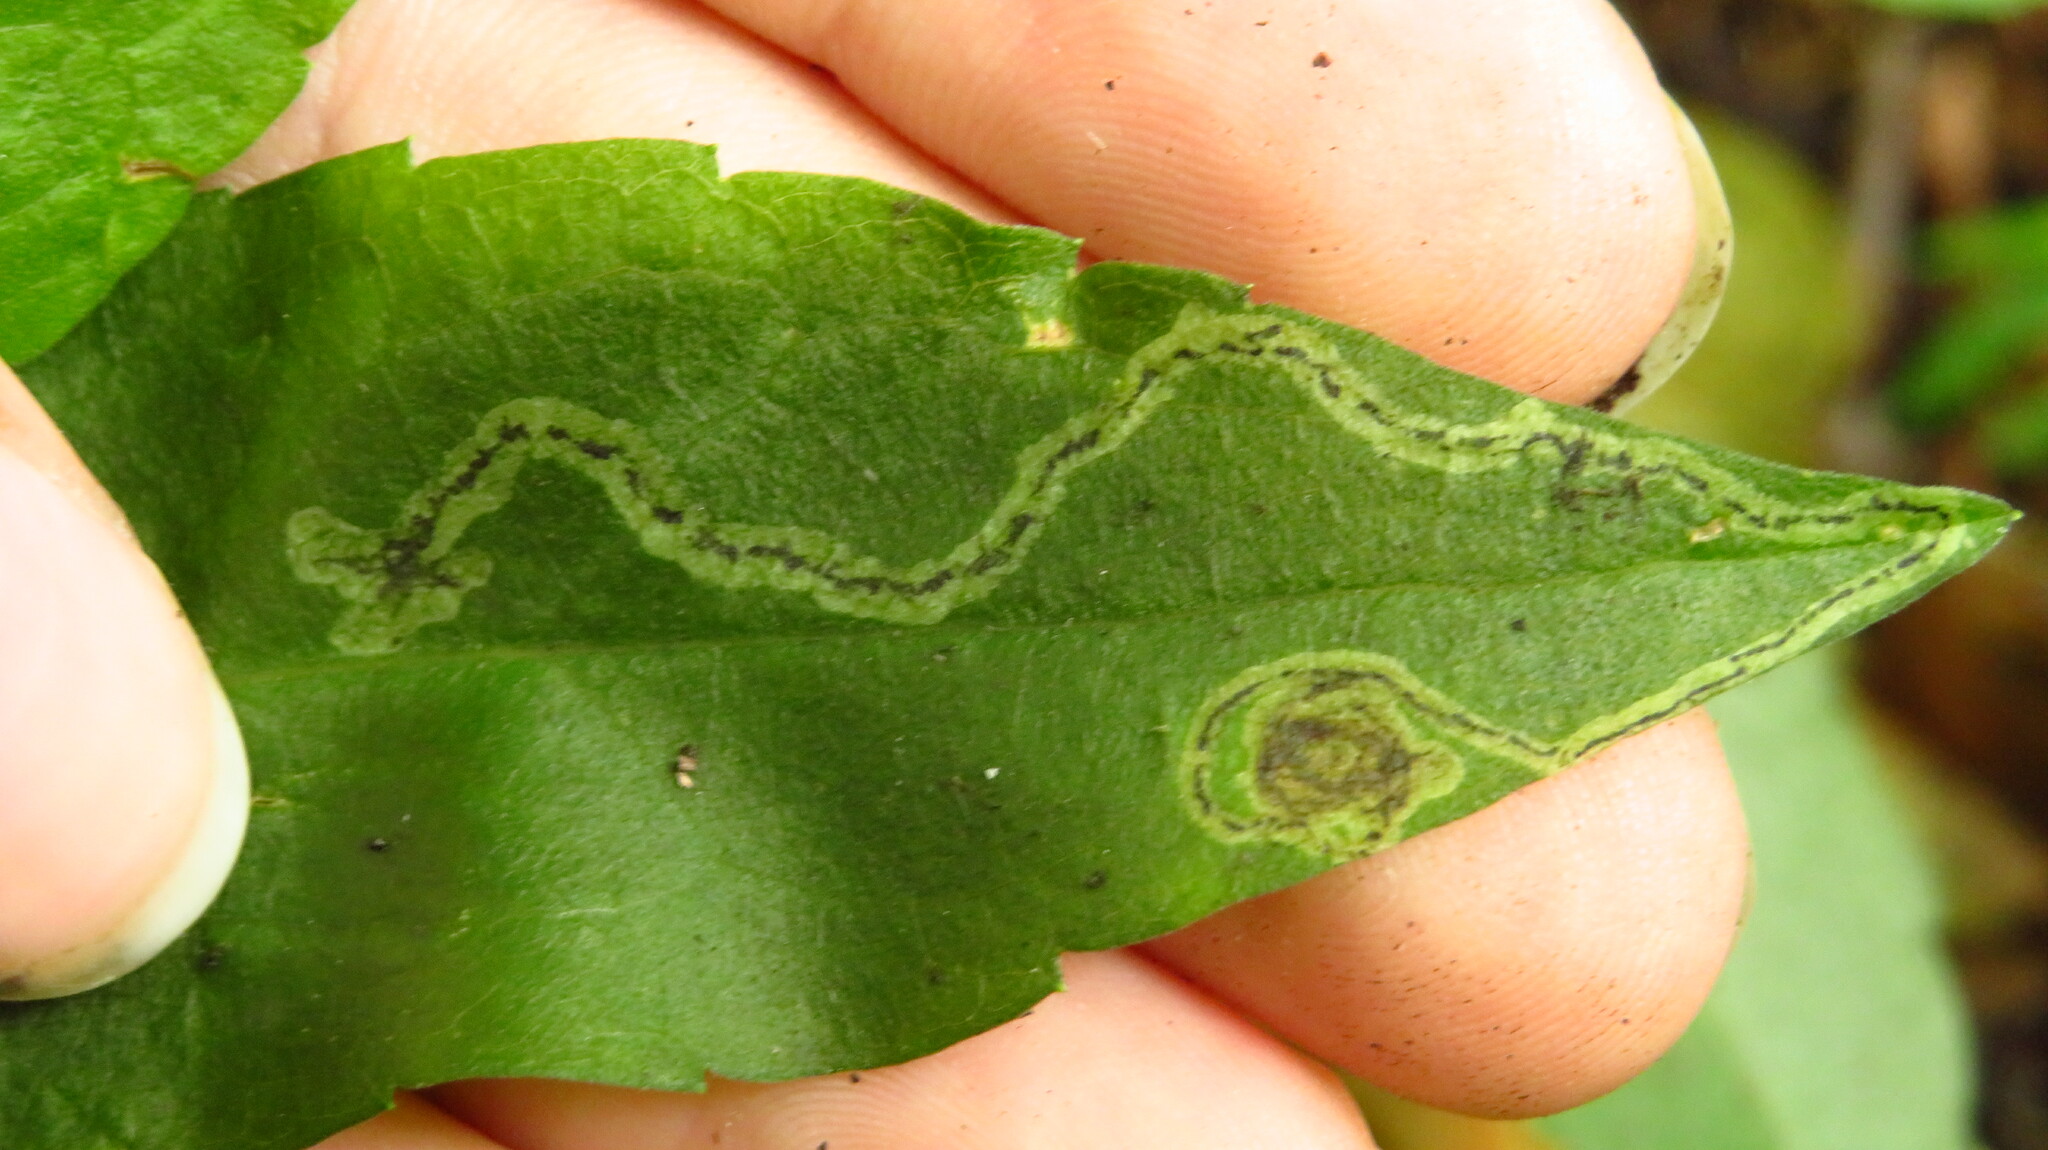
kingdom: Animalia
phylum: Arthropoda
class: Insecta
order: Diptera
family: Agromyzidae
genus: Liriomyza
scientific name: Liriomyza eupatorii
